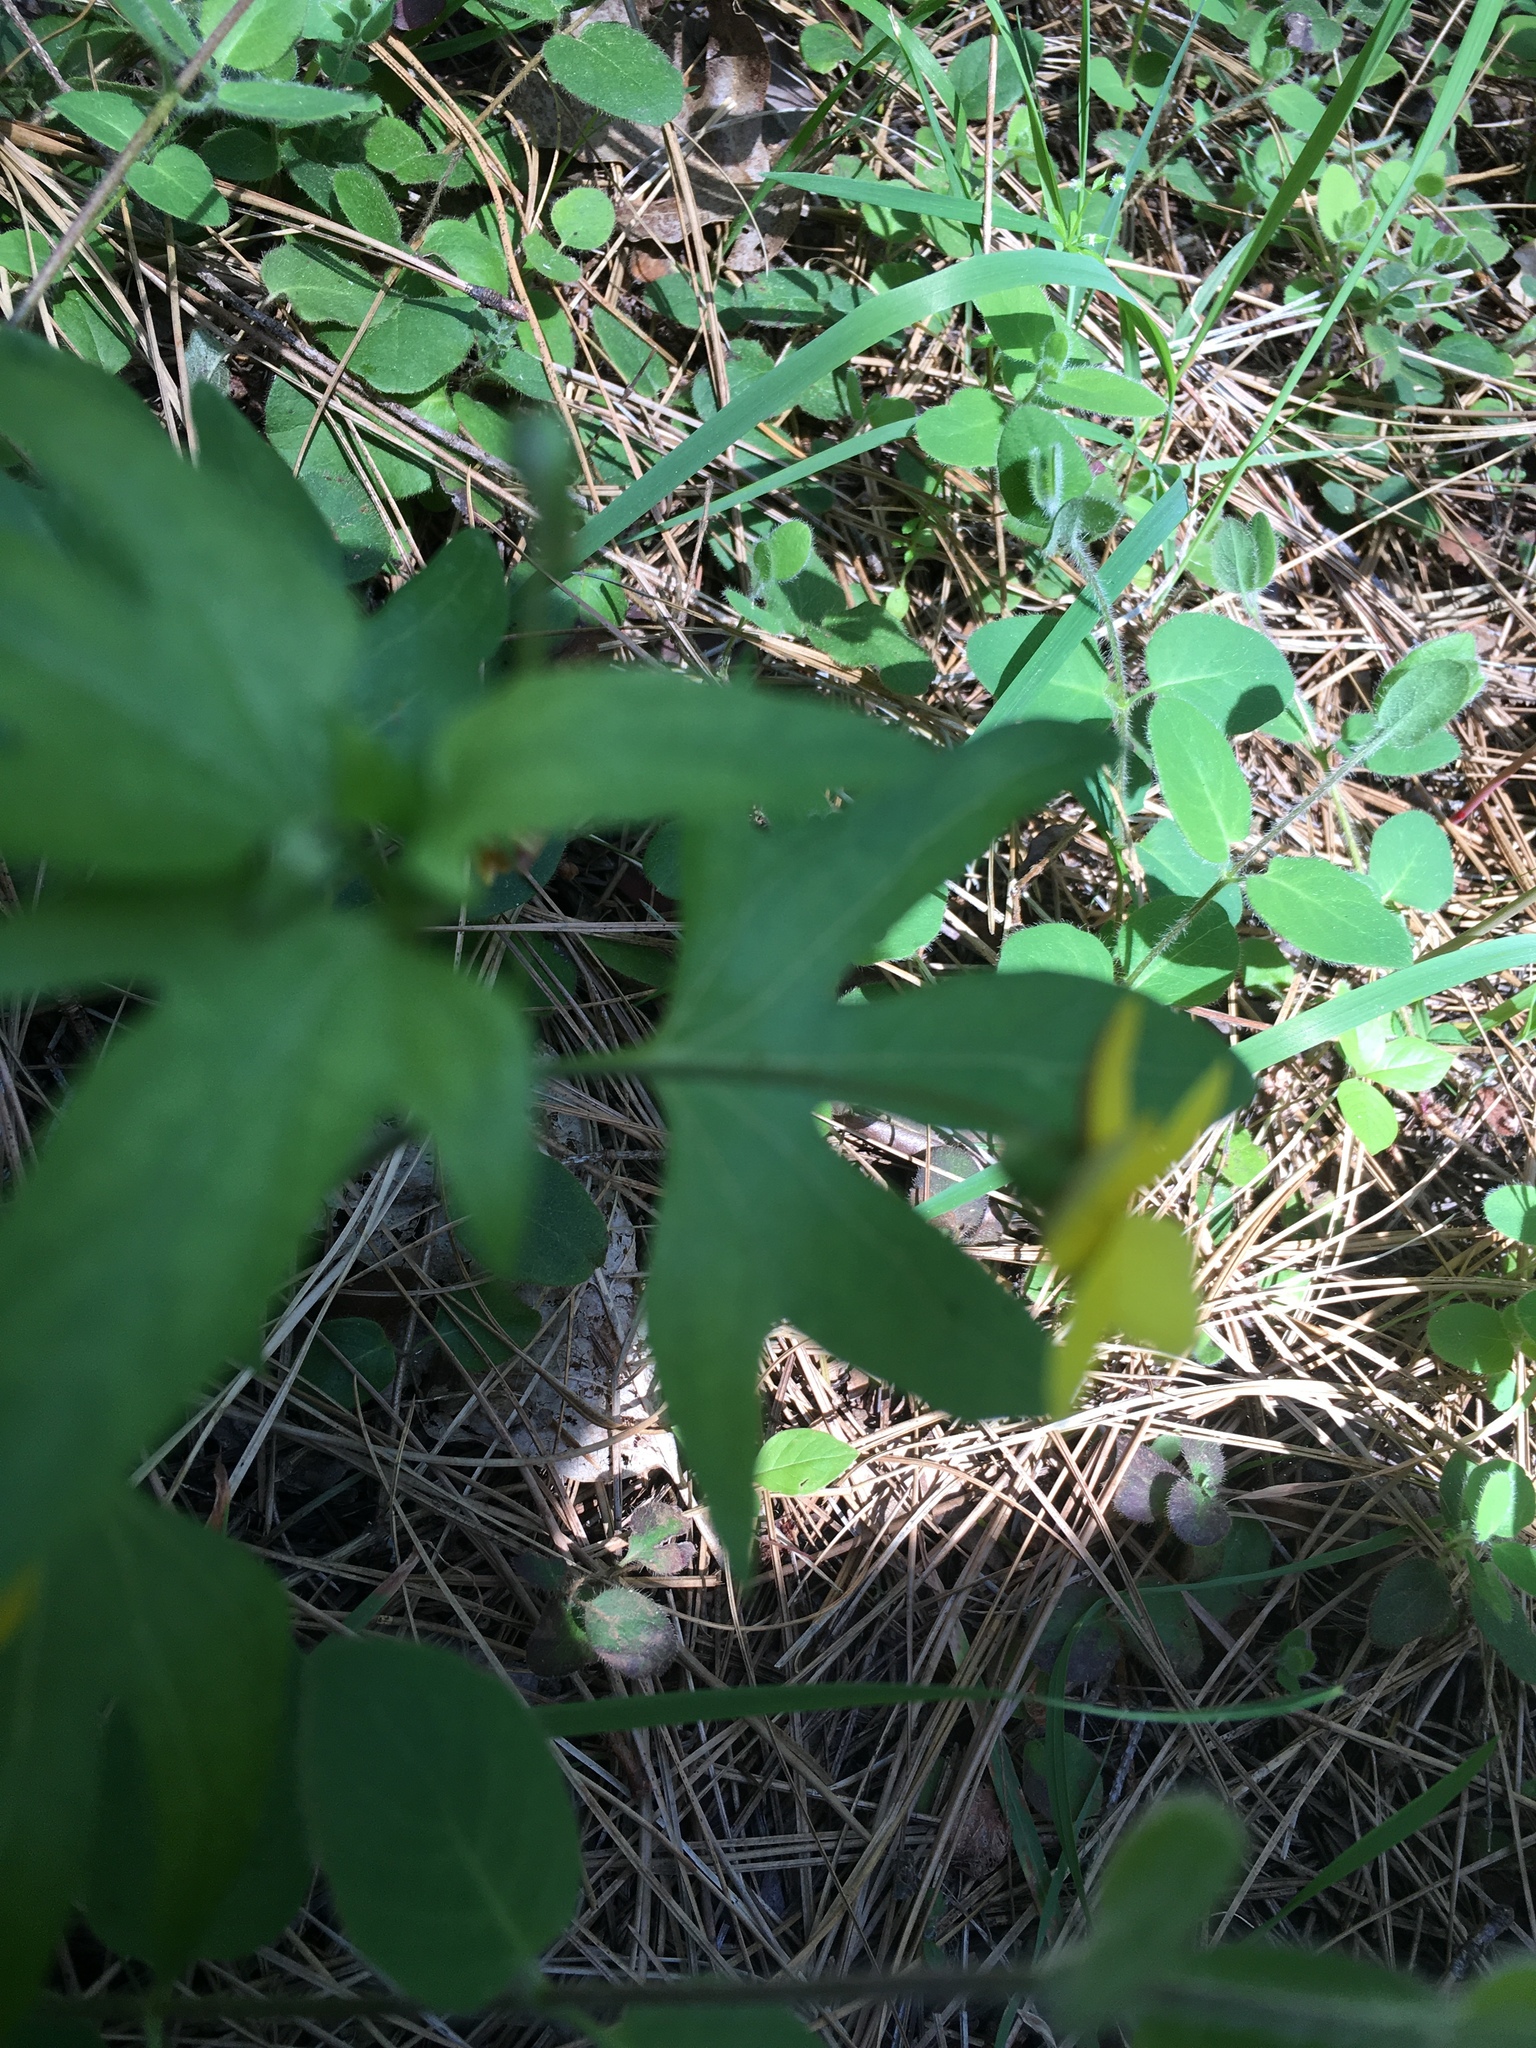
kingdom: Plantae
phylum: Tracheophyta
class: Magnoliopsida
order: Malpighiales
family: Violaceae
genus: Viola
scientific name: Viola lobata
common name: Pine violet
